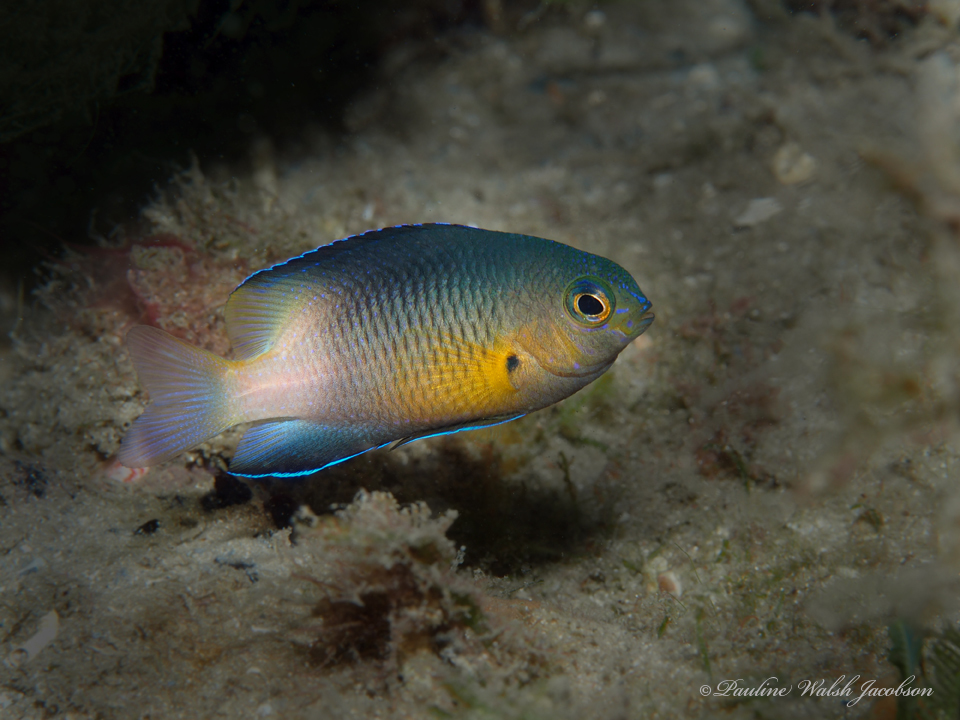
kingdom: Animalia
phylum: Chordata
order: Perciformes
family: Pomacentridae
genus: Stegastes
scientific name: Stegastes partitus
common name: Bicolor damselfish
